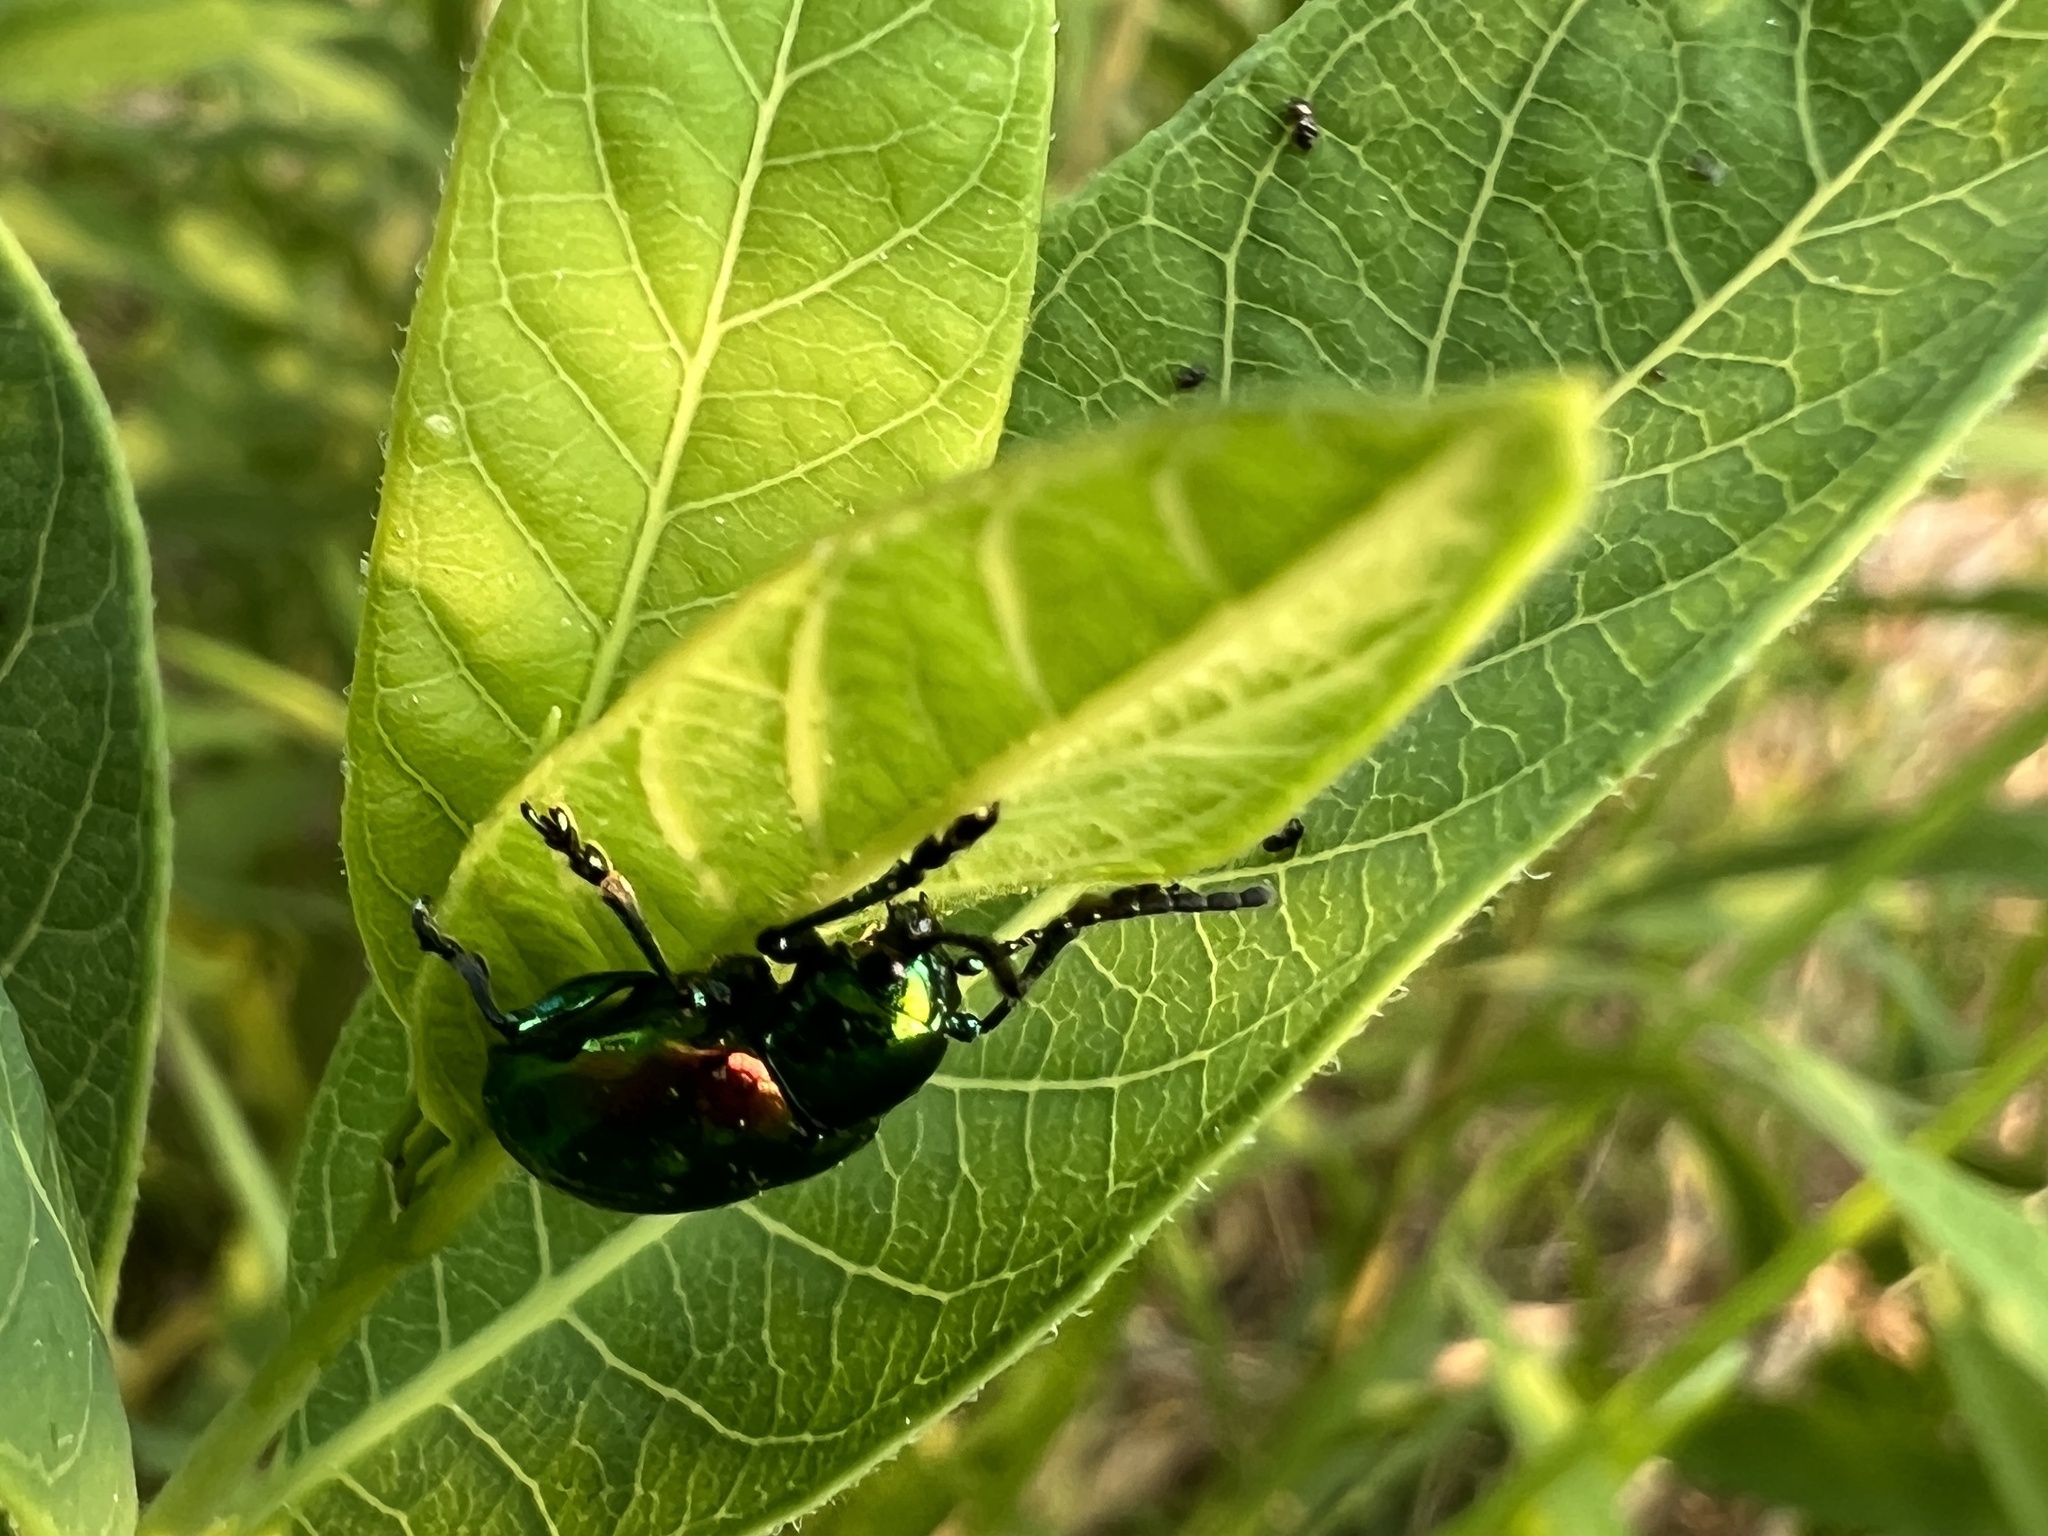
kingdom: Animalia
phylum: Arthropoda
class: Insecta
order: Coleoptera
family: Chrysomelidae
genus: Chrysochus
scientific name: Chrysochus auratus
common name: Dogbane leaf beetle
